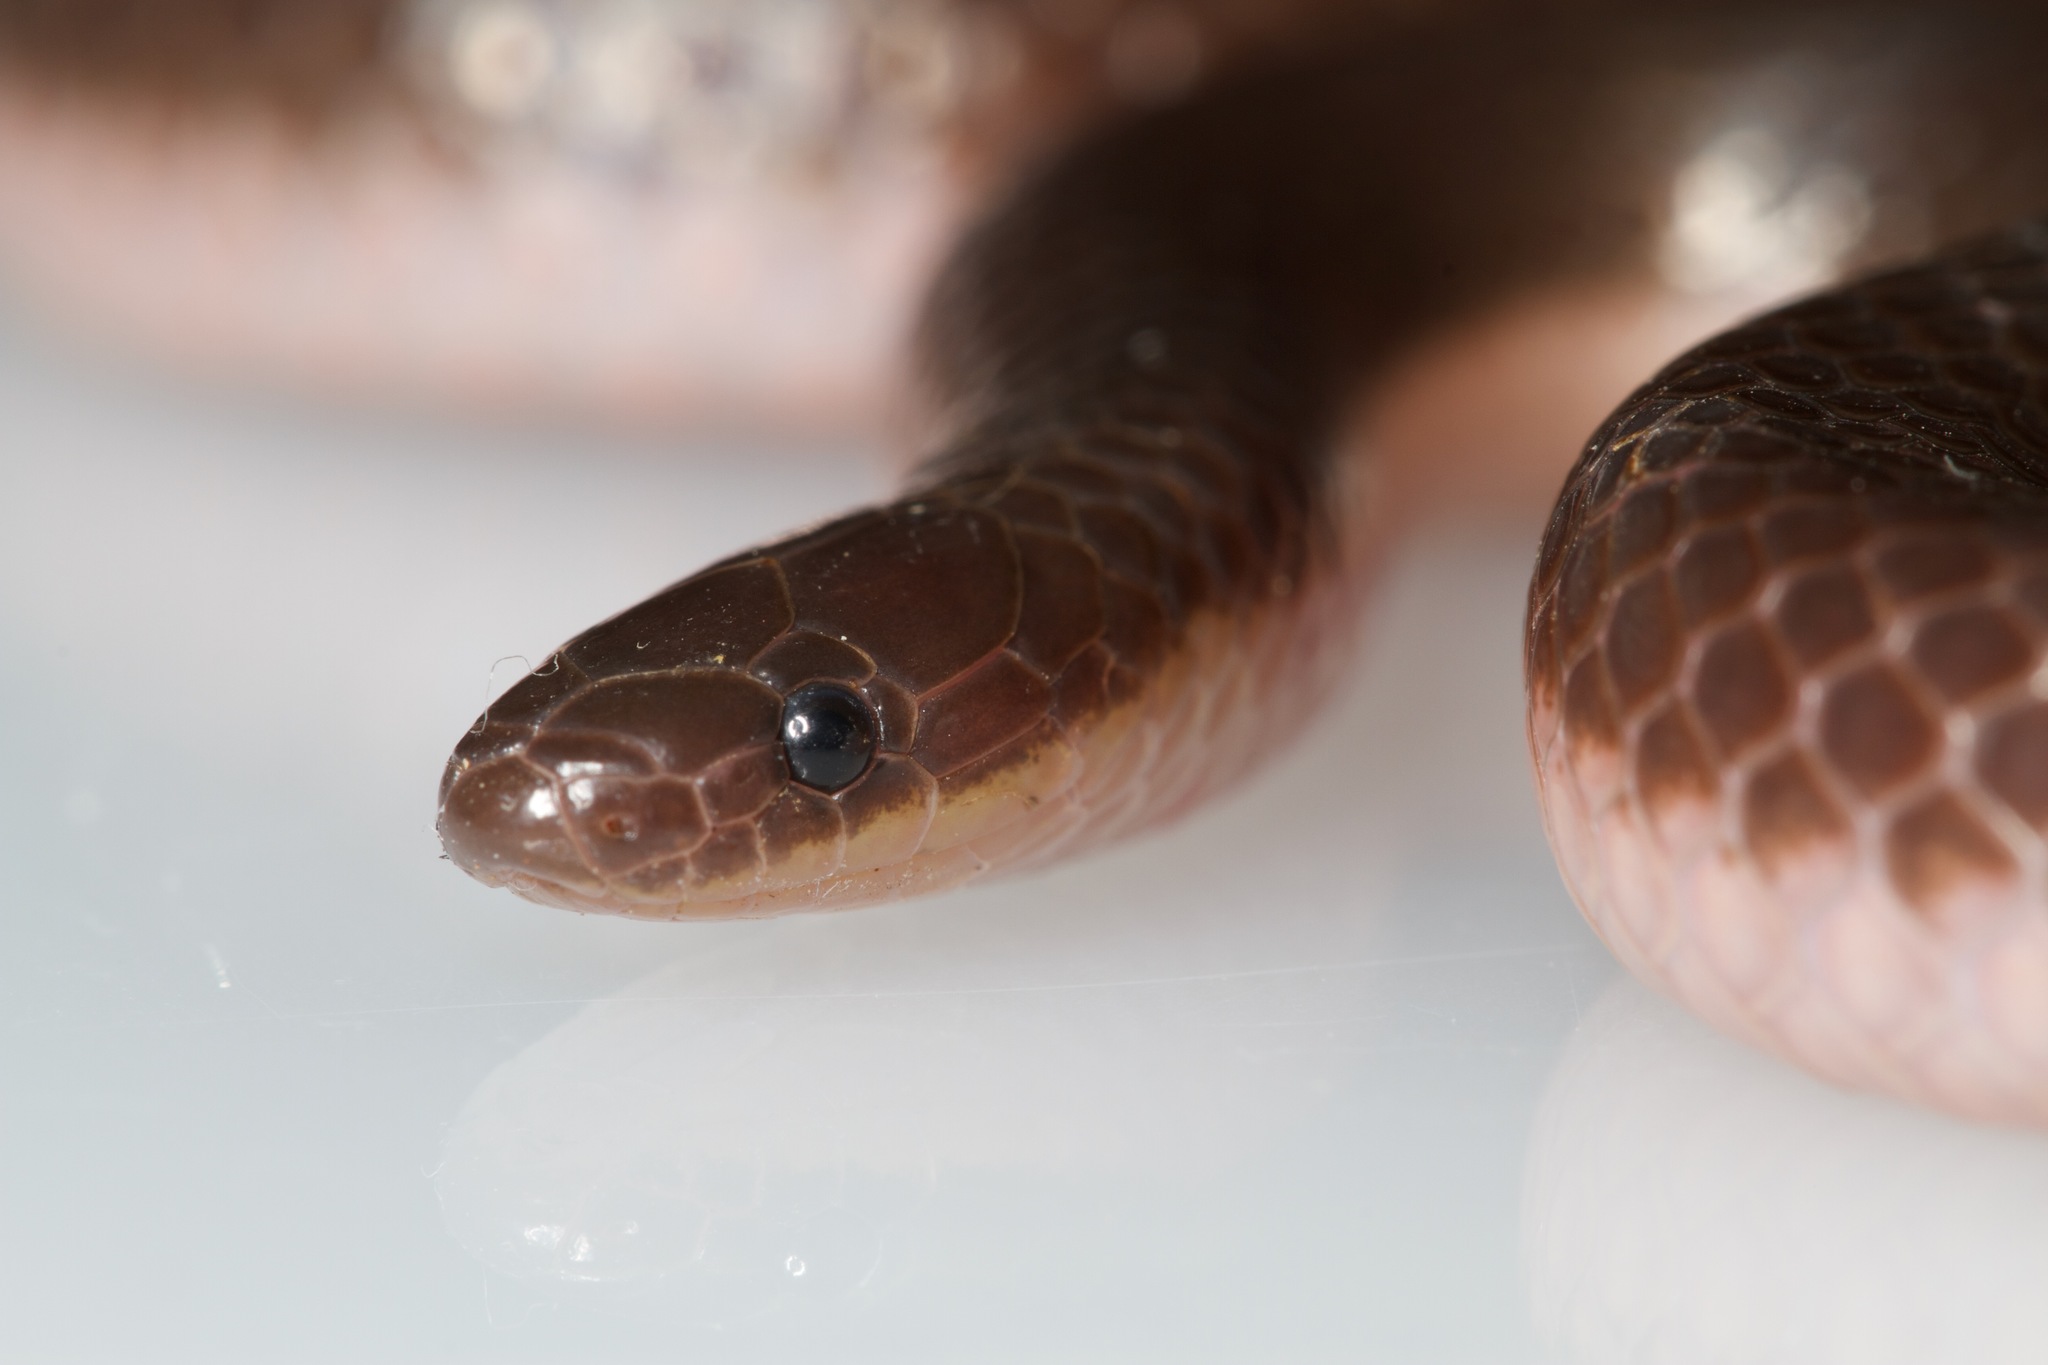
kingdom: Animalia
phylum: Chordata
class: Squamata
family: Colubridae
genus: Carphophis
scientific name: Carphophis amoenus
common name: Eastern worm snake
